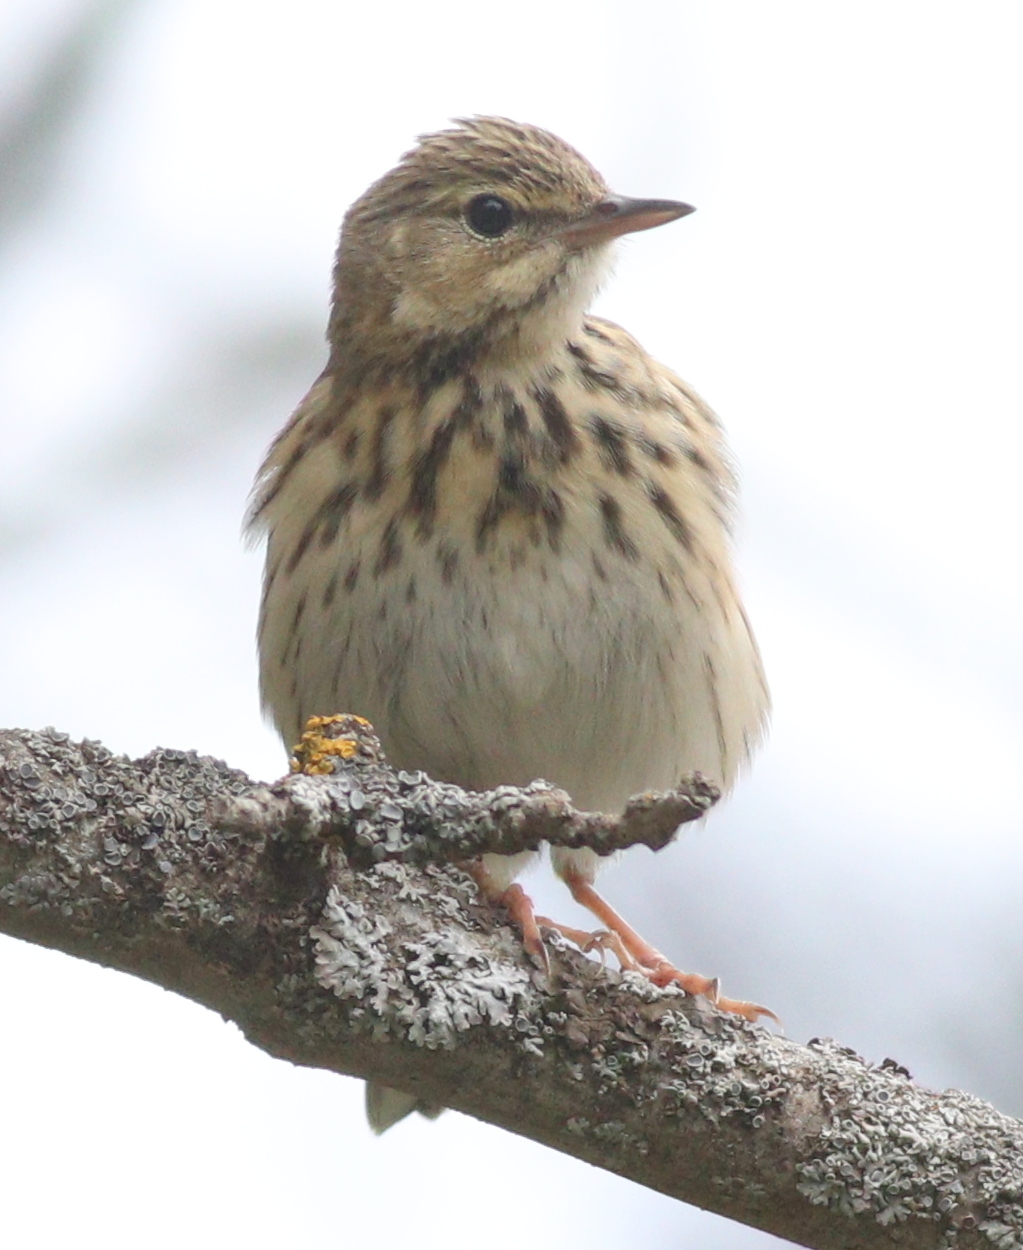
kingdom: Animalia
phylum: Chordata
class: Aves
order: Passeriformes
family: Motacillidae
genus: Anthus
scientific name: Anthus trivialis
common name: Tree pipit
